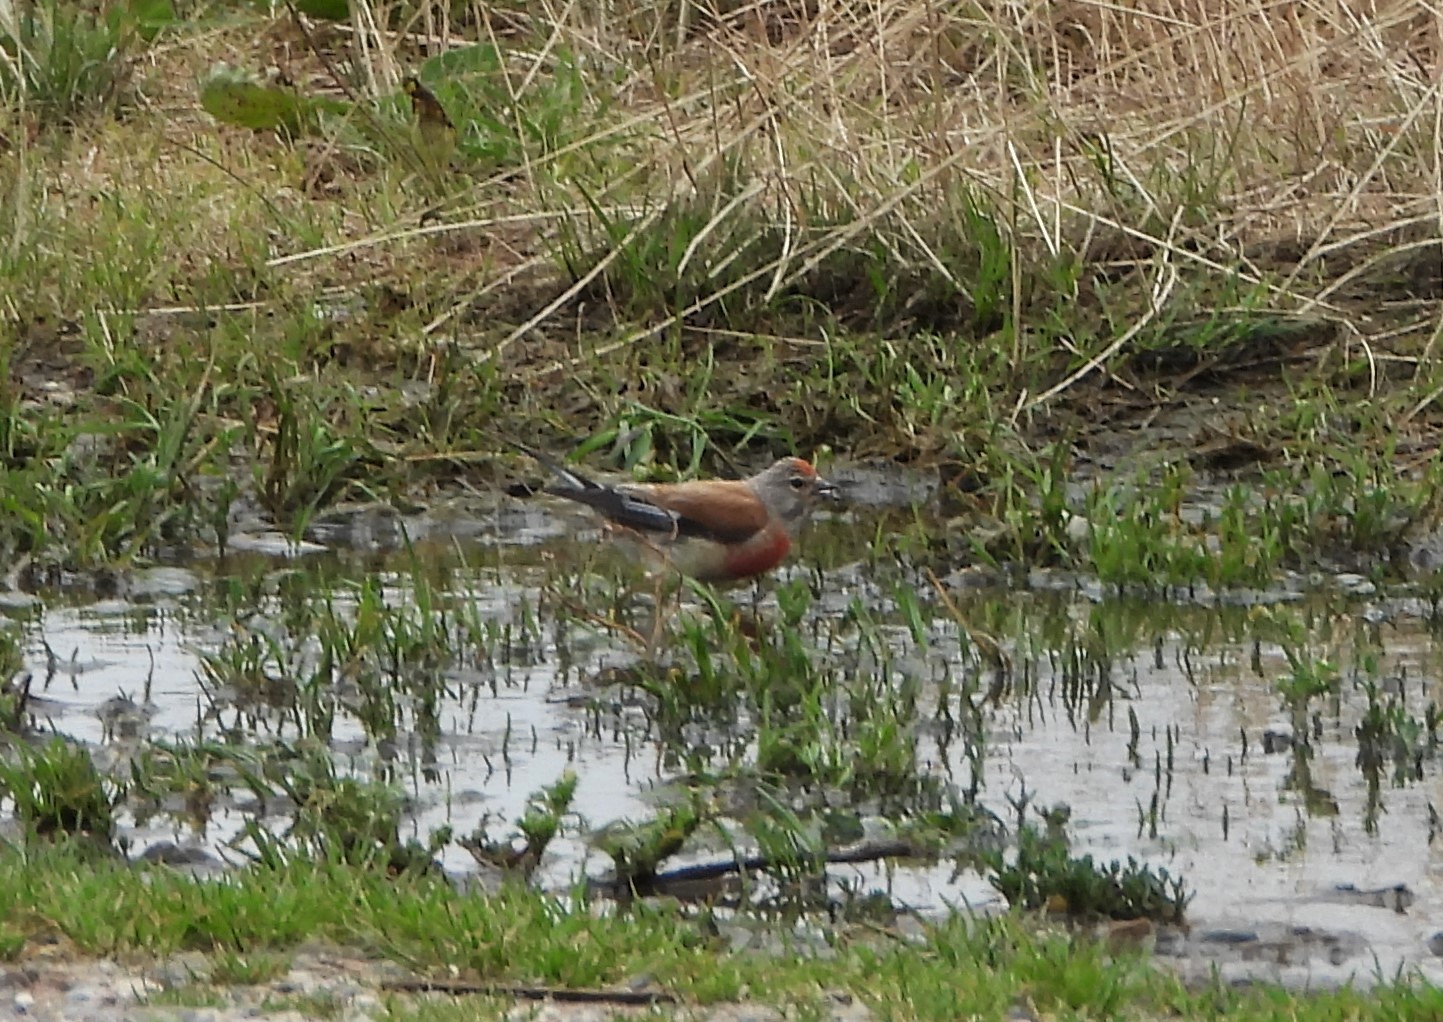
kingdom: Animalia
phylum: Chordata
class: Aves
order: Passeriformes
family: Fringillidae
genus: Linaria
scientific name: Linaria cannabina
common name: Common linnet
